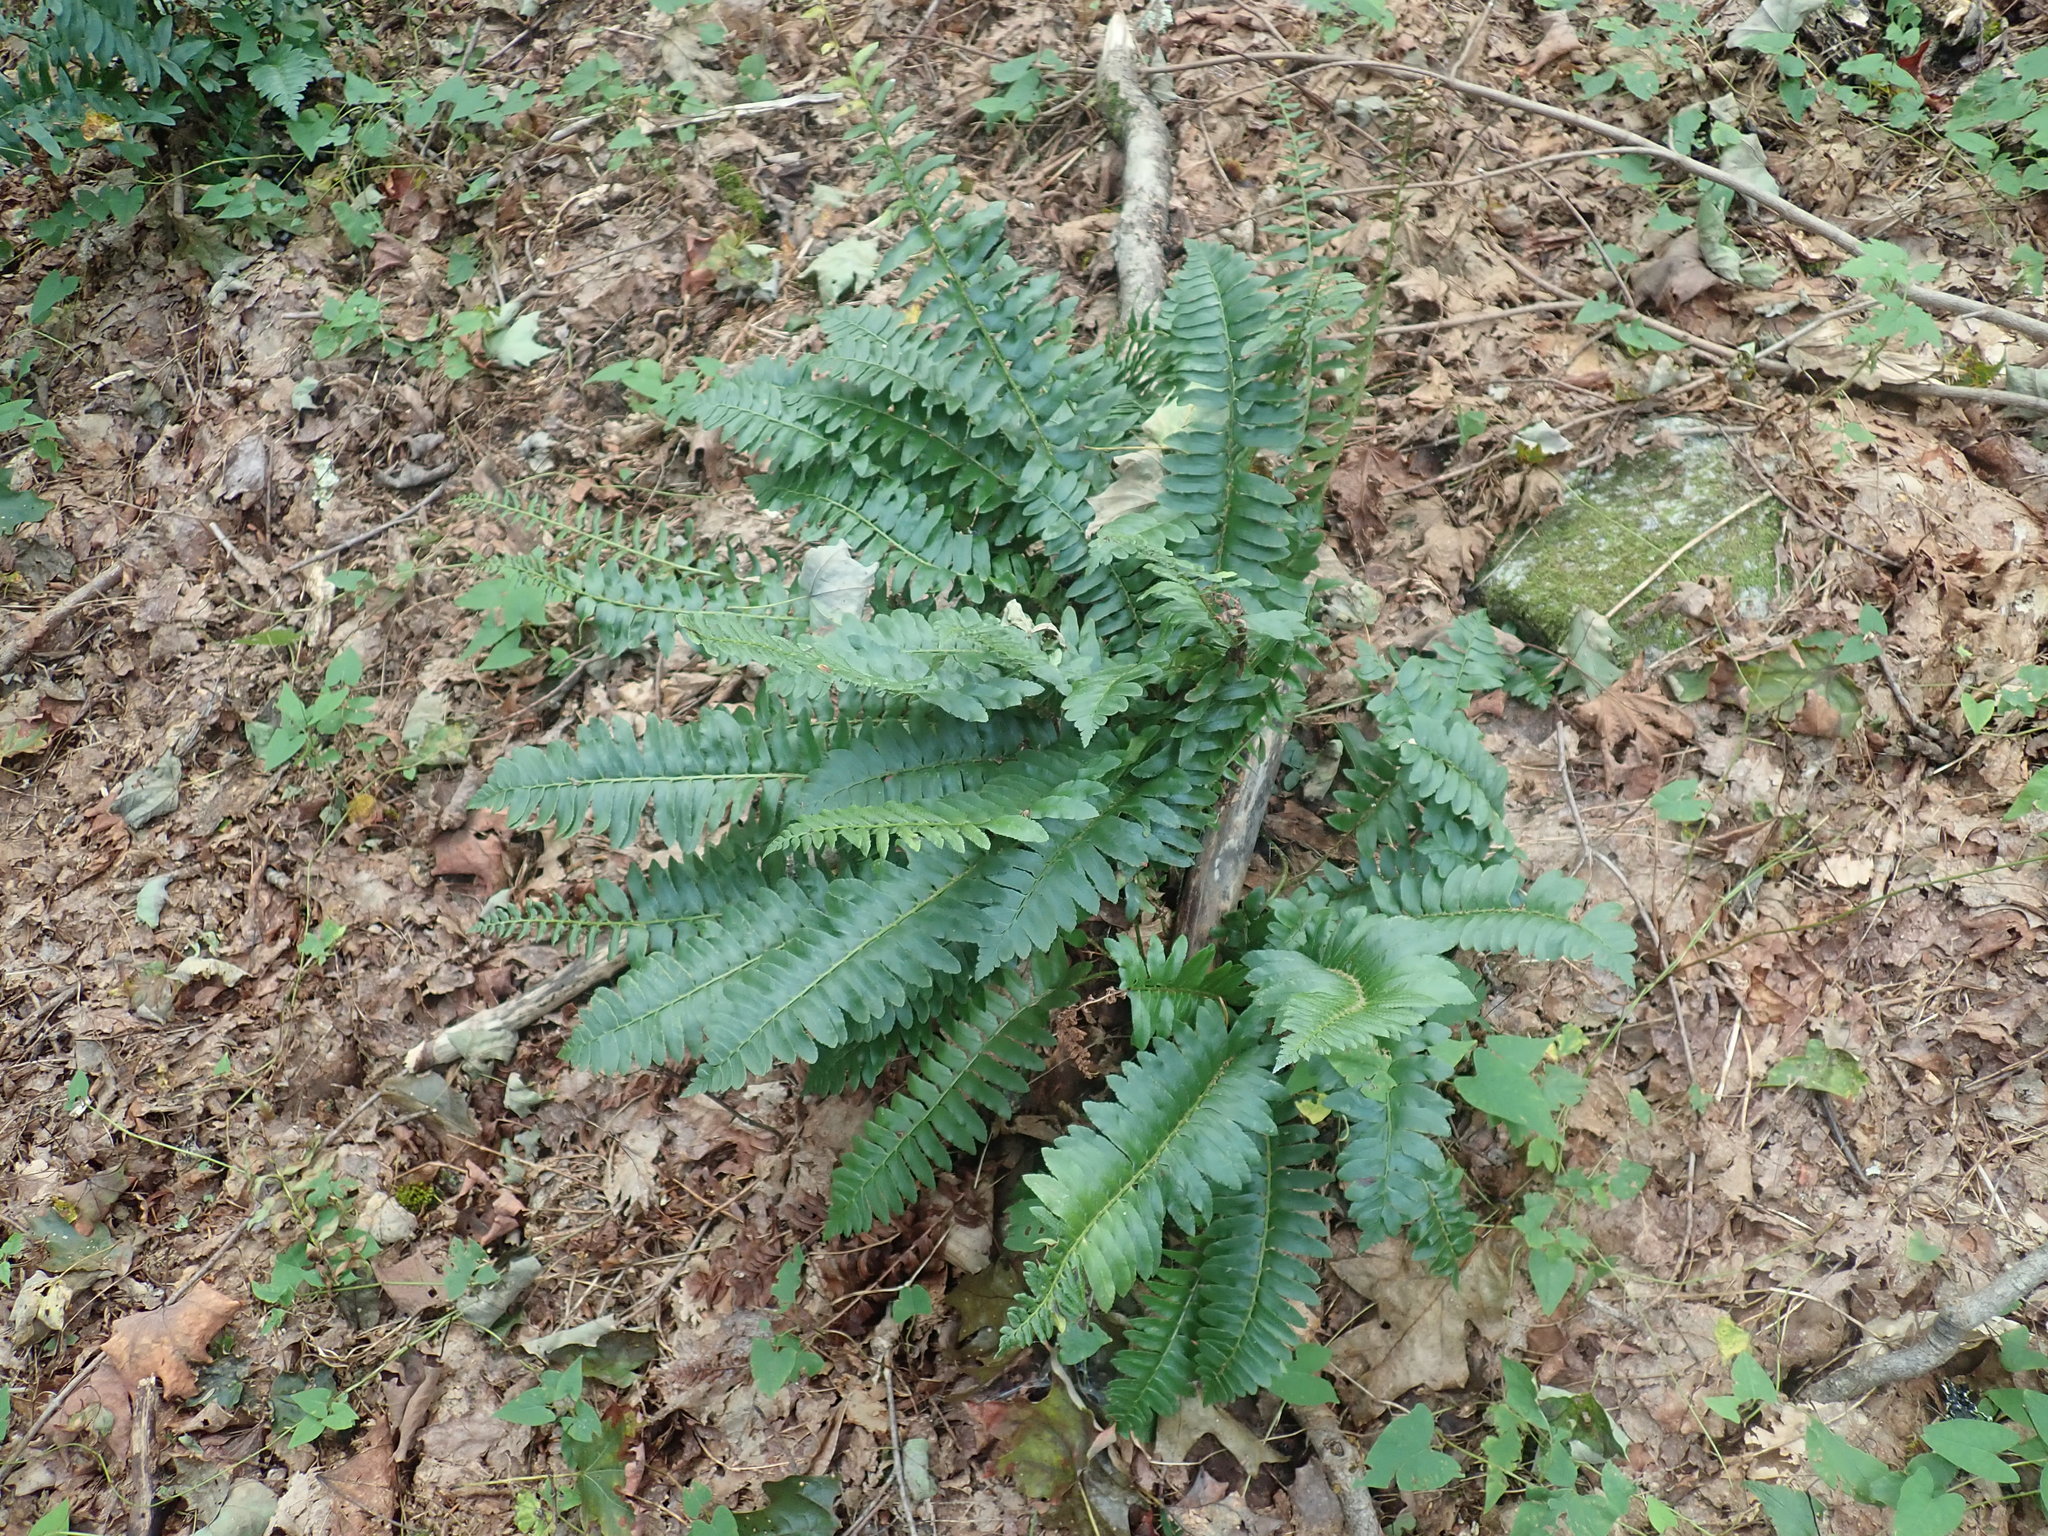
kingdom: Plantae
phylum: Tracheophyta
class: Polypodiopsida
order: Polypodiales
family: Dryopteridaceae
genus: Polystichum
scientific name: Polystichum acrostichoides
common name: Christmas fern
